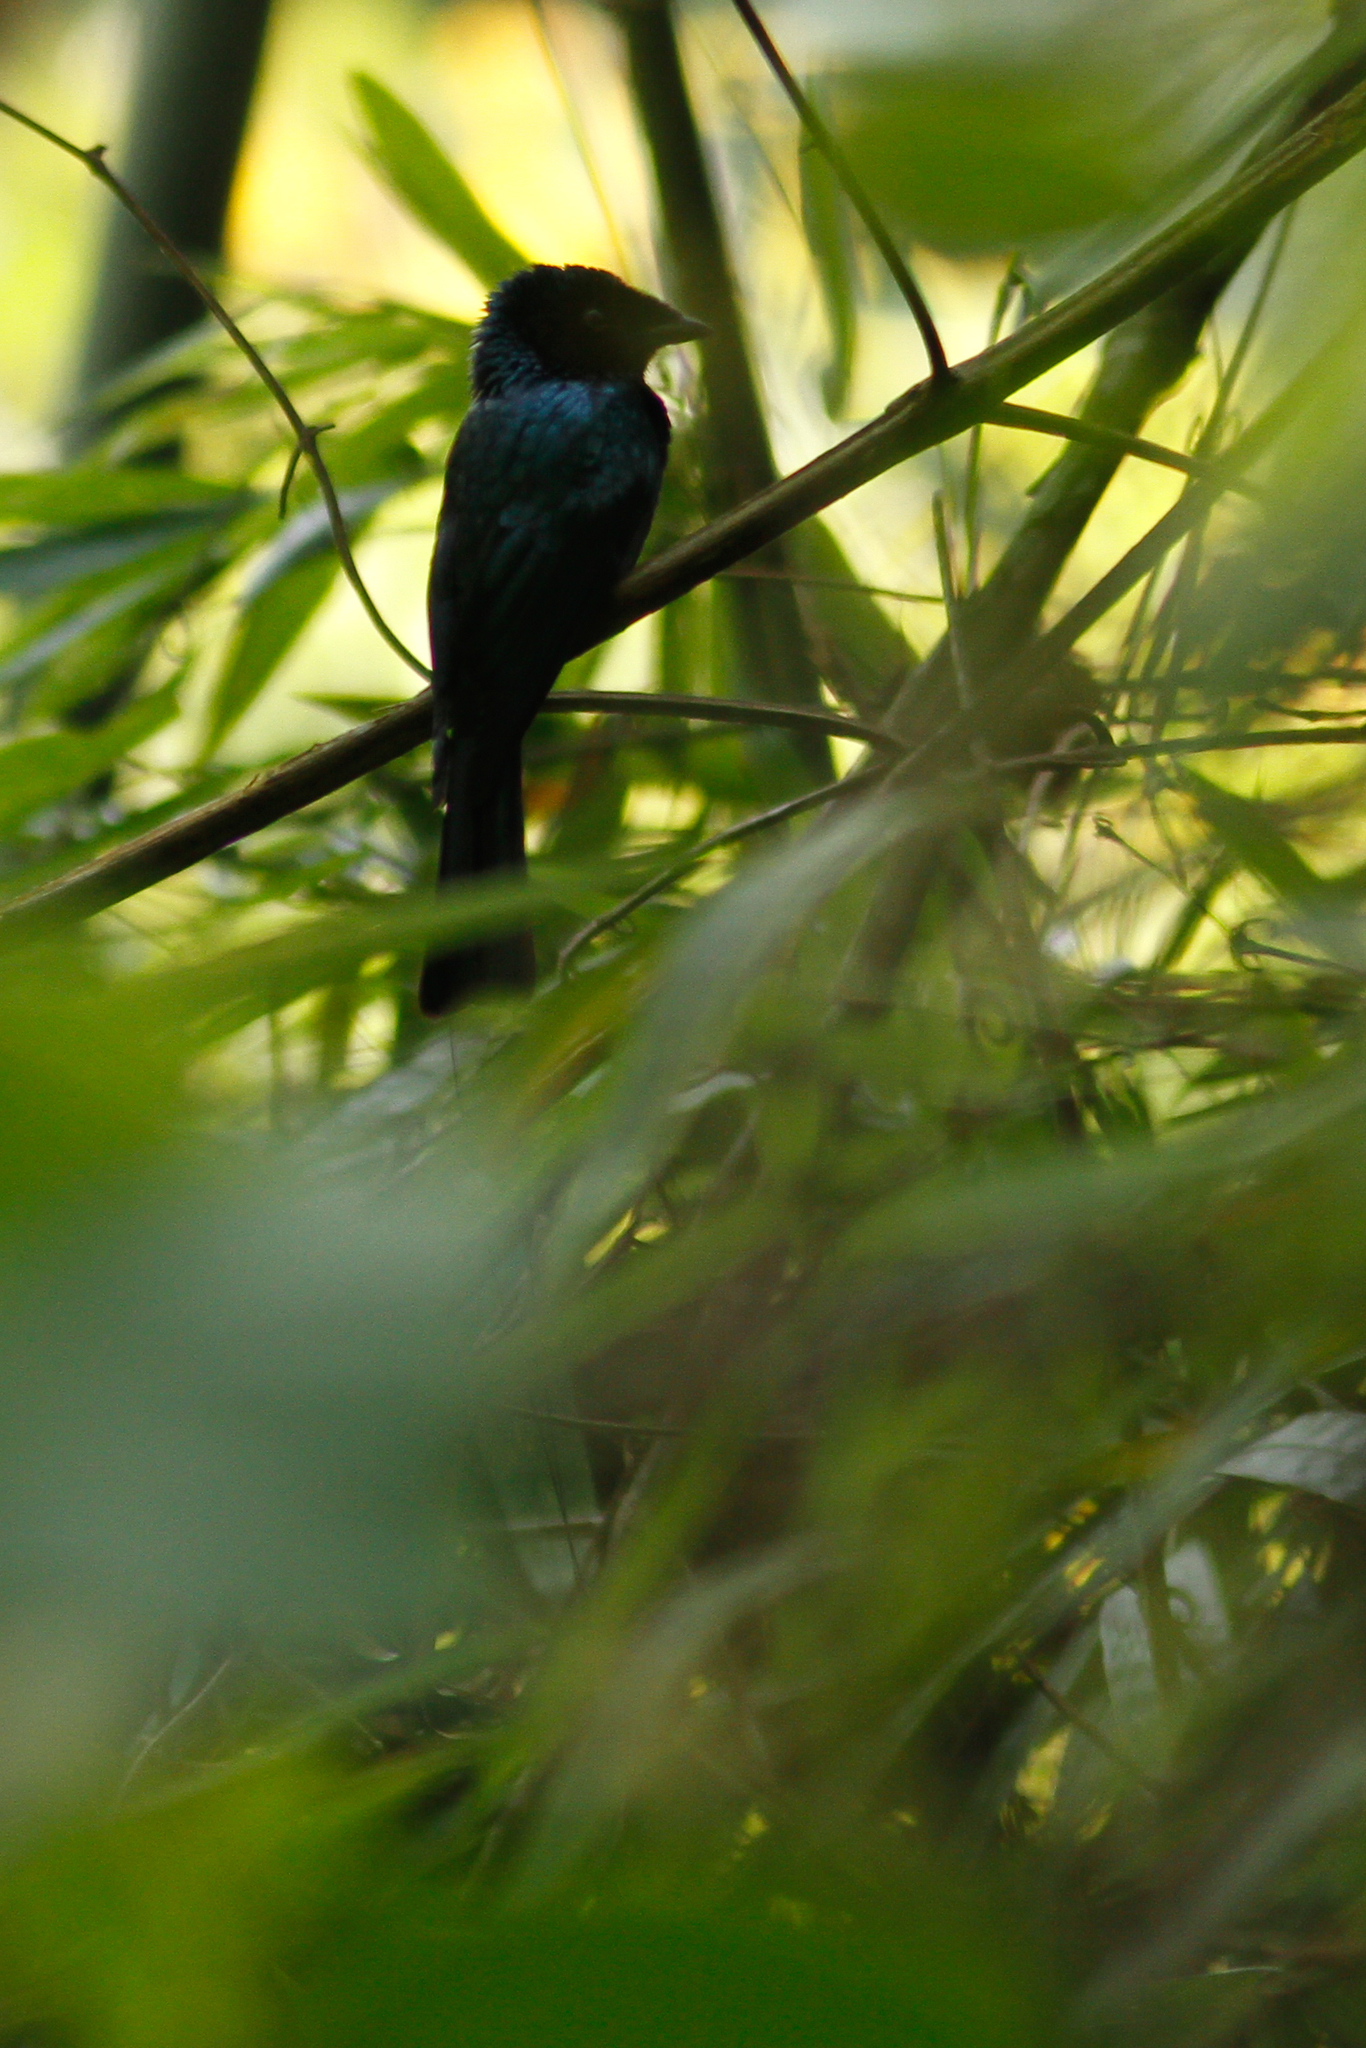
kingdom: Animalia
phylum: Chordata
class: Aves
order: Passeriformes
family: Dicruridae
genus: Dicrurus
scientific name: Dicrurus remifer
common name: Lesser racket-tailed drongo
